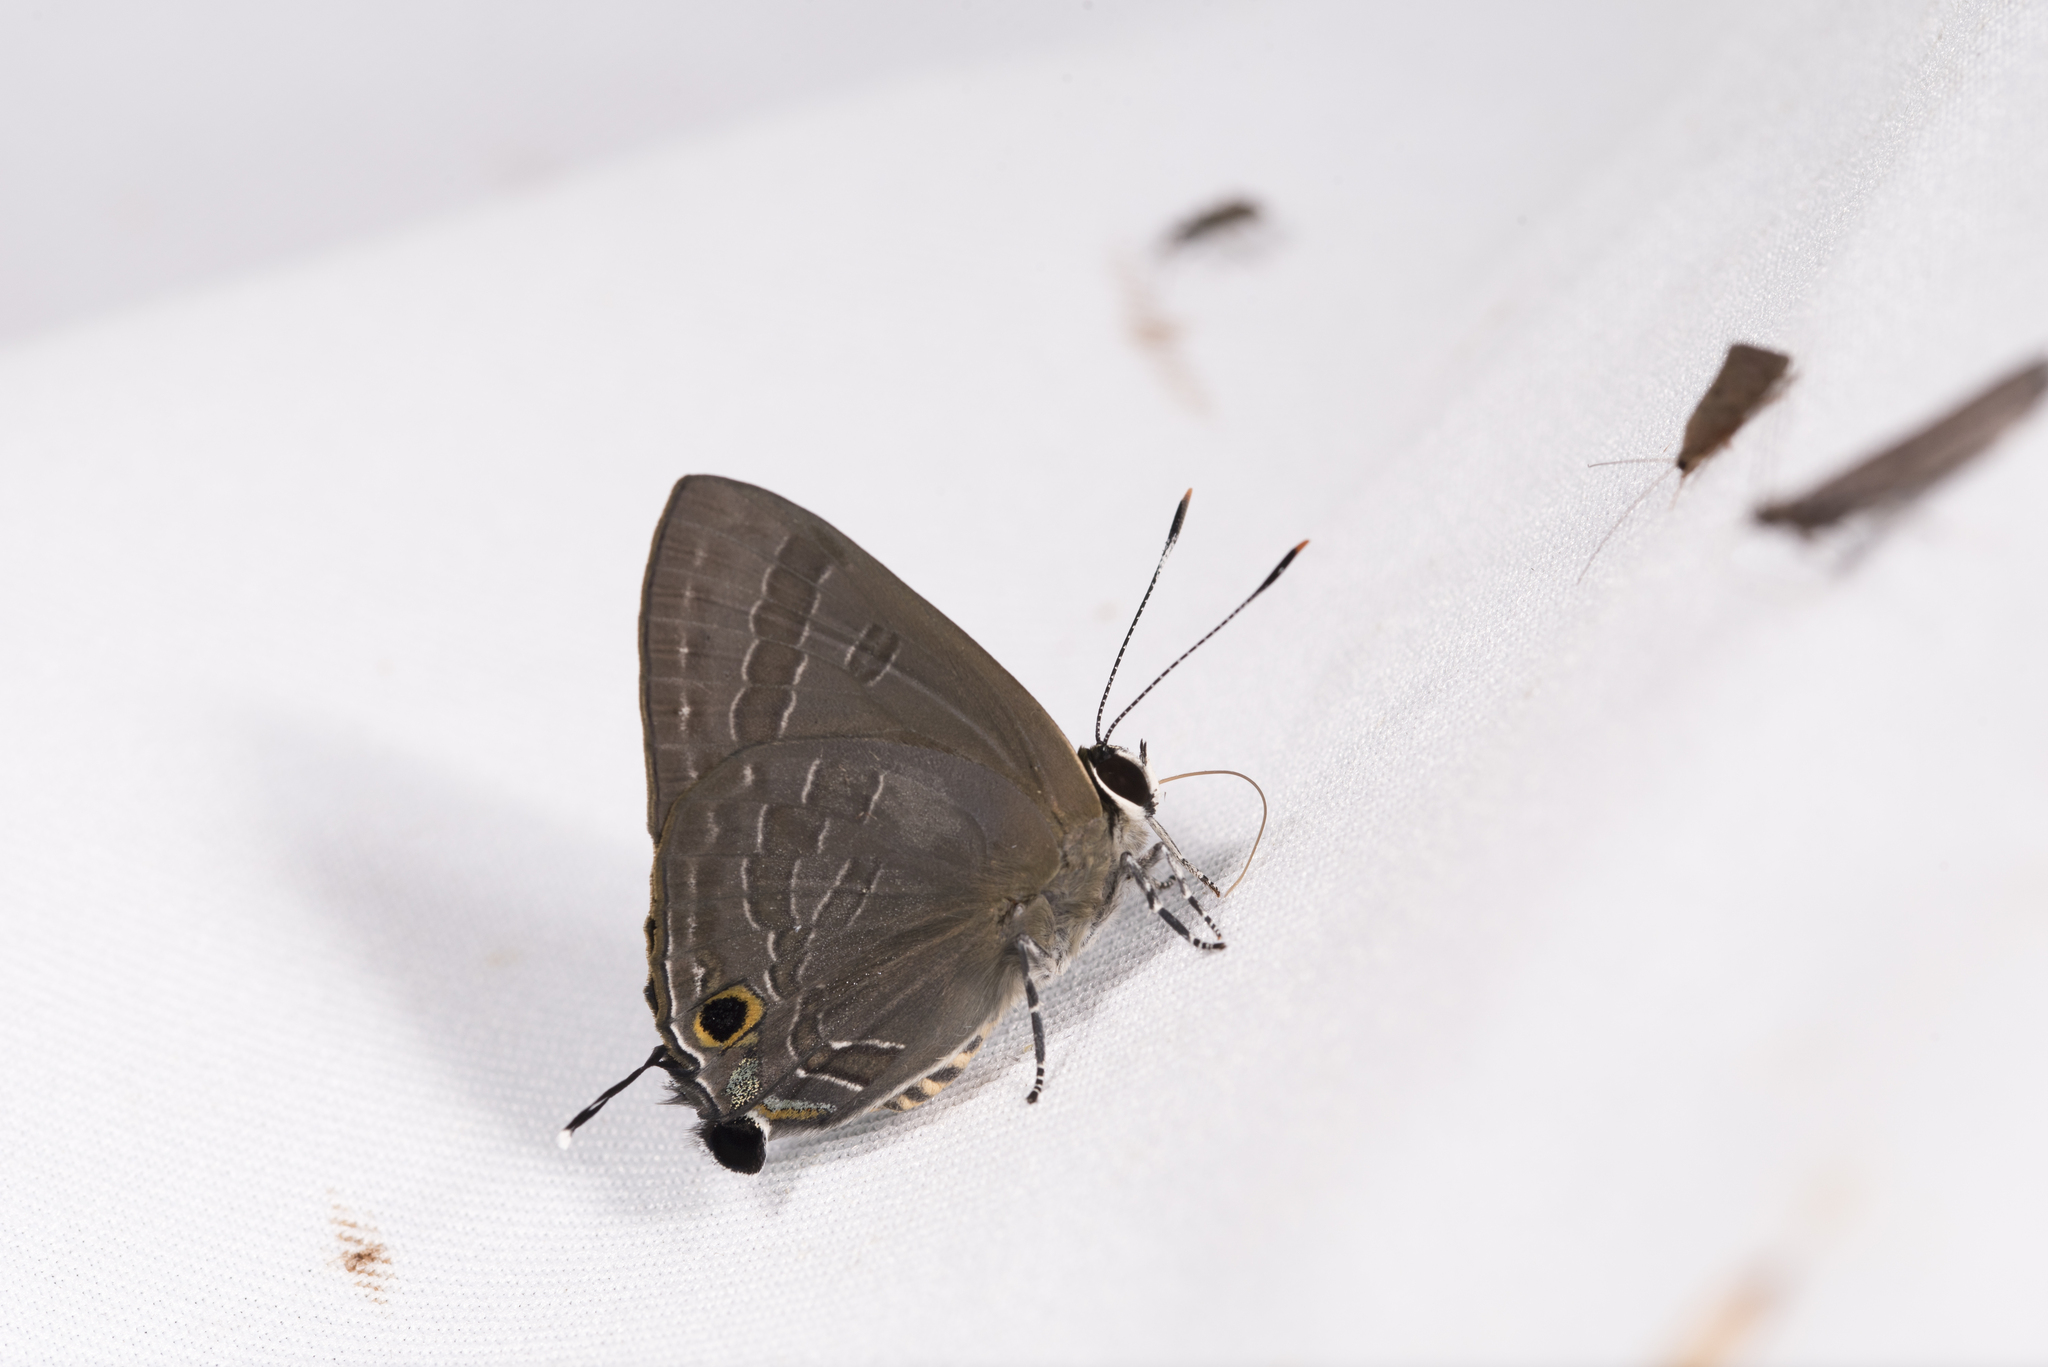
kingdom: Animalia
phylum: Arthropoda
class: Insecta
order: Lepidoptera
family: Lycaenidae
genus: Deudorix
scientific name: Deudorix epijarbas
